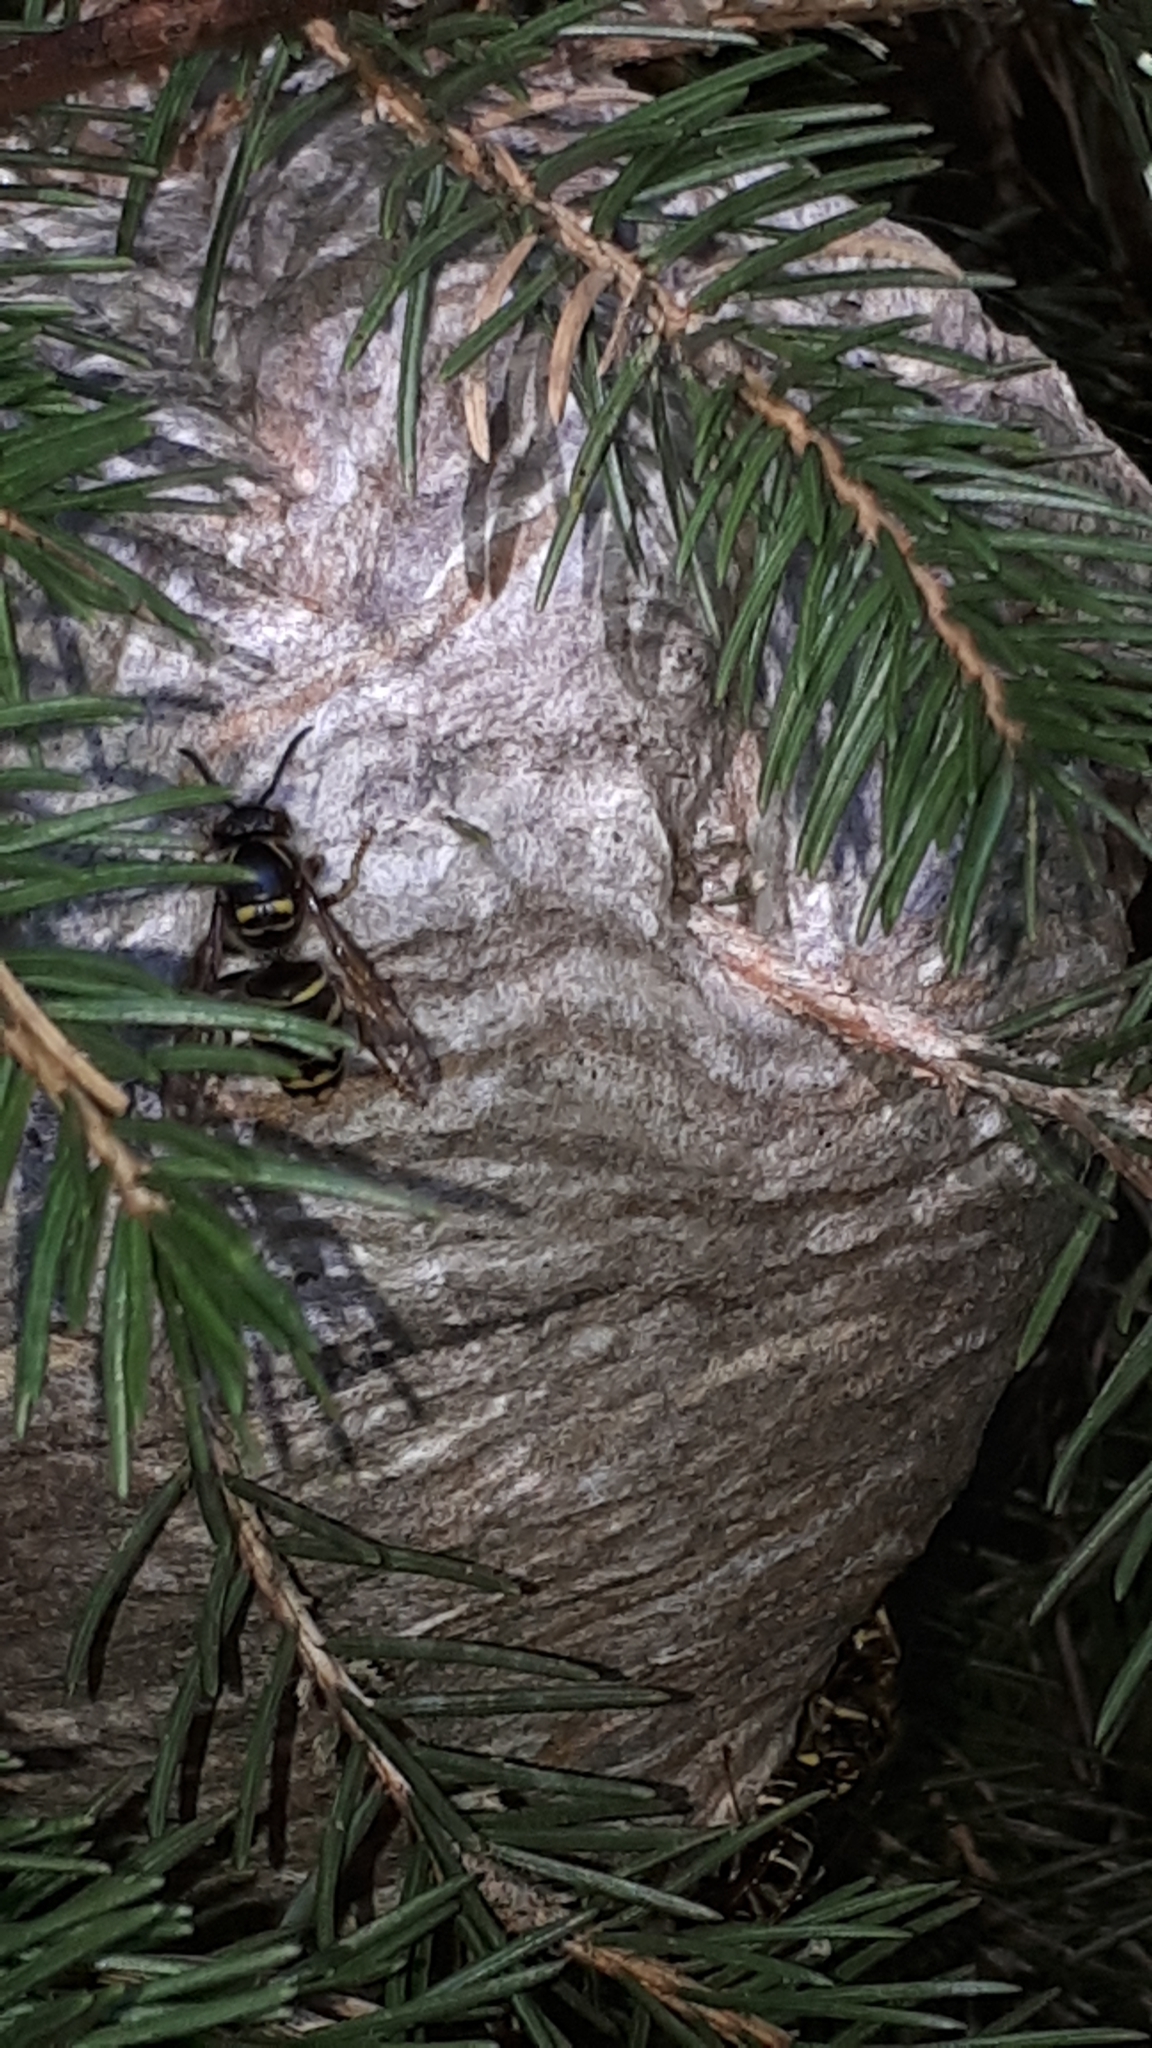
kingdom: Animalia
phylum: Arthropoda
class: Insecta
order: Hymenoptera
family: Vespidae
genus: Dolichovespula
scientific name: Dolichovespula media
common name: Median wasp
